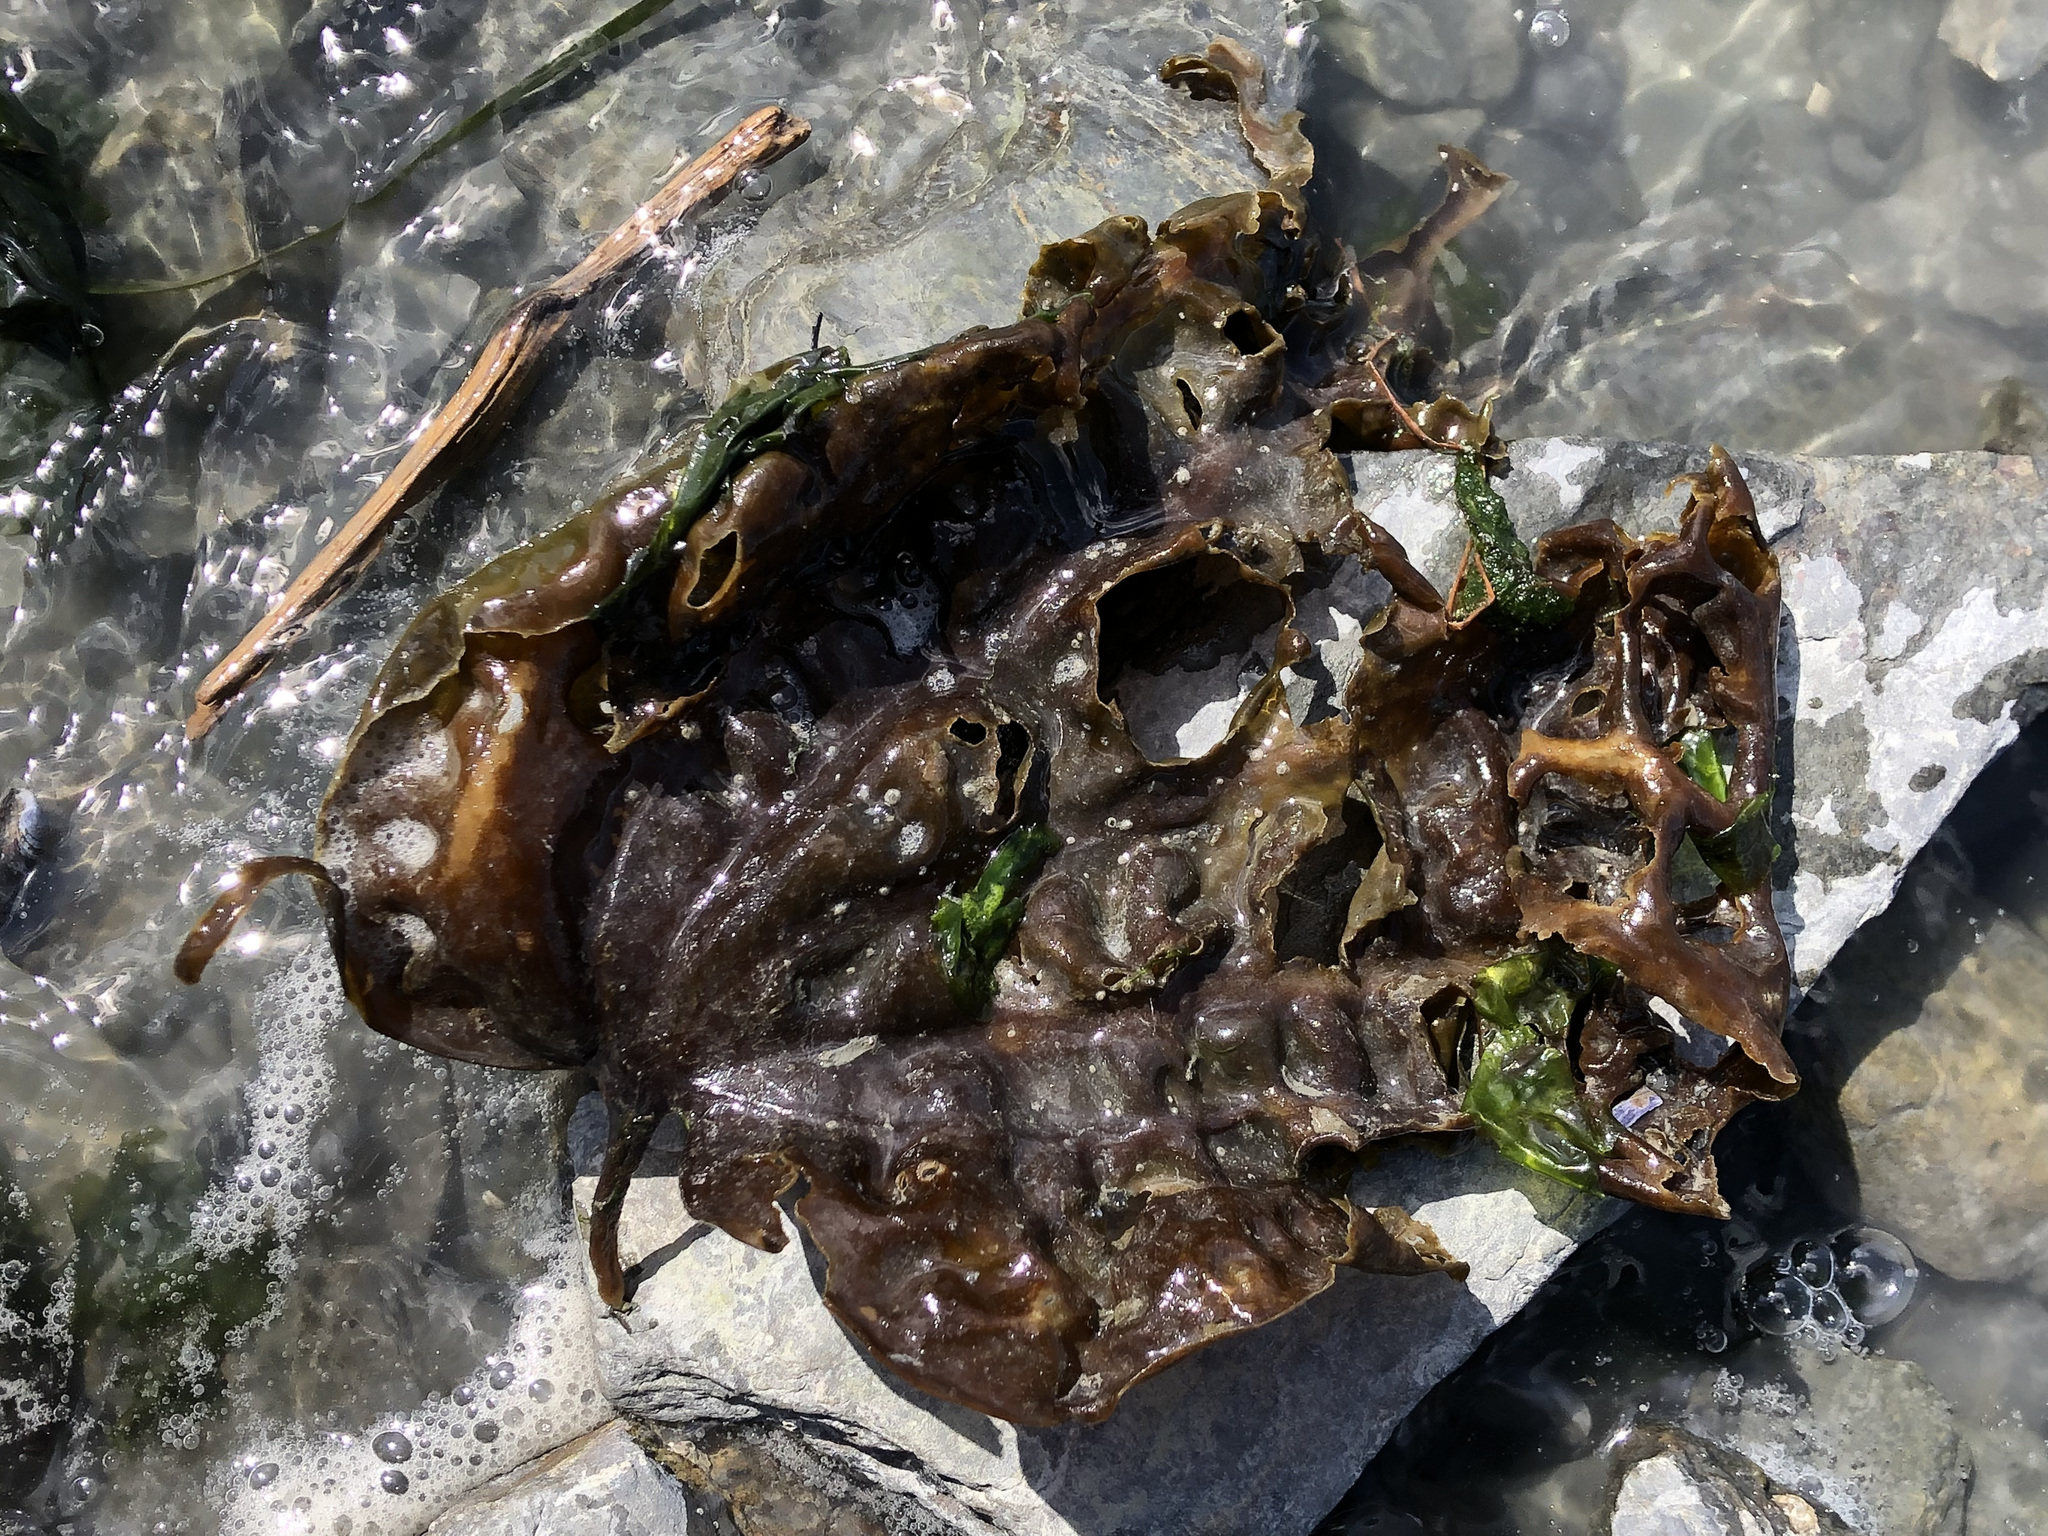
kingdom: Chromista
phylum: Ochrophyta
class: Phaeophyceae
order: Laminariales
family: Costariaceae
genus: Costaria
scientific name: Costaria costata
